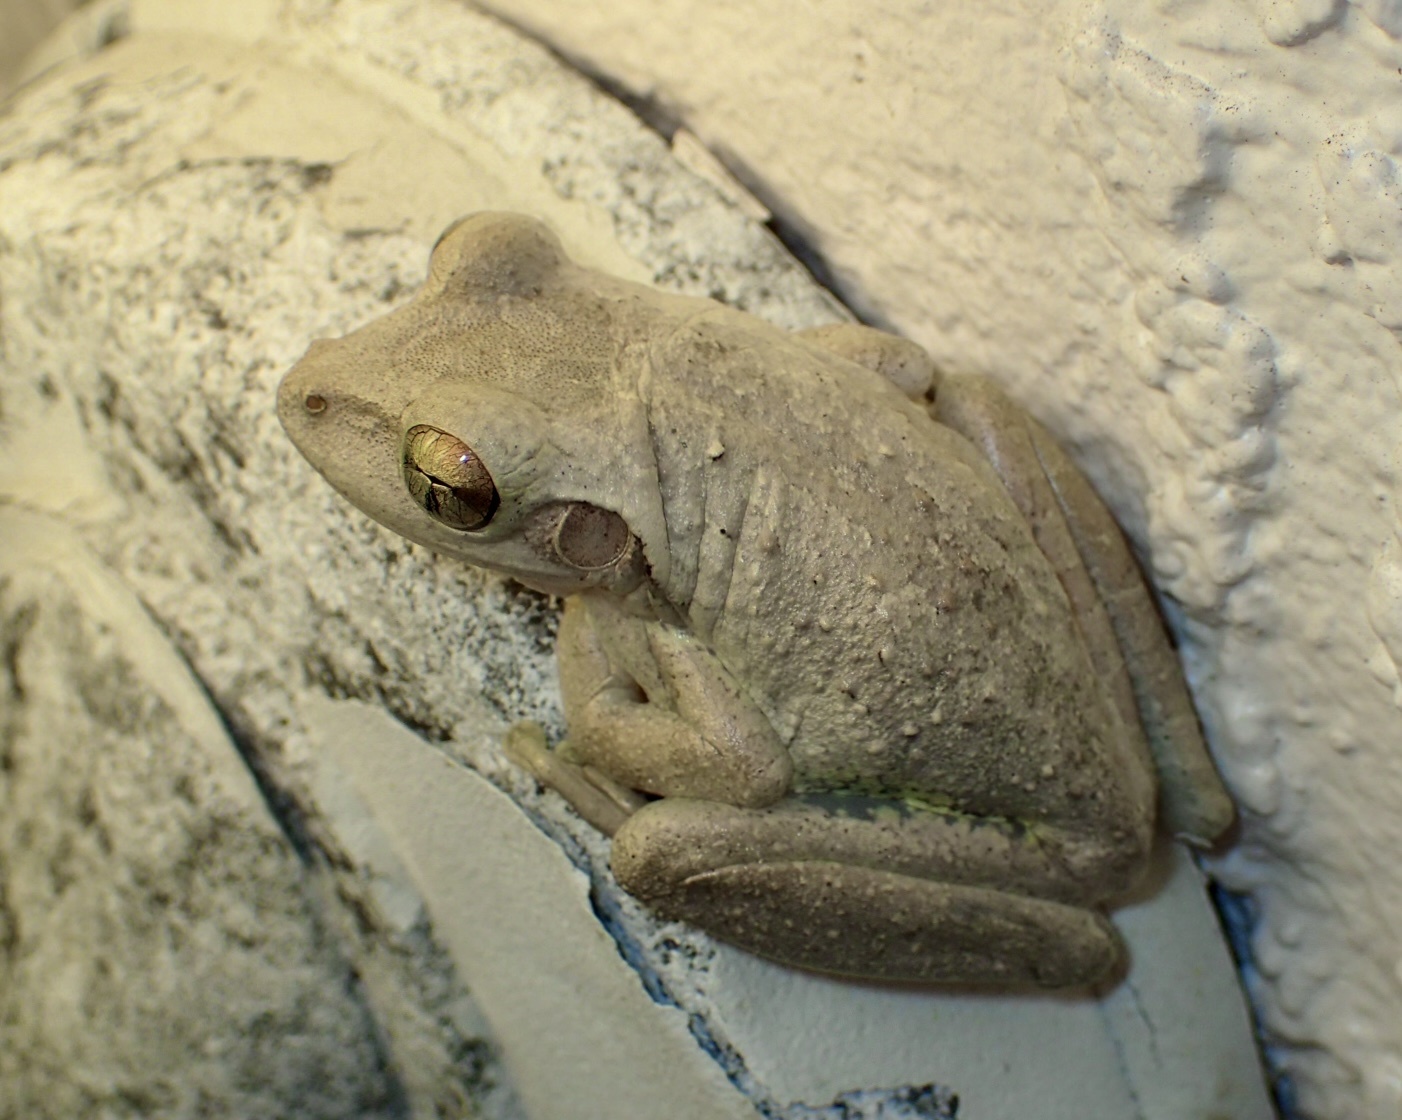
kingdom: Animalia
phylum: Chordata
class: Amphibia
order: Anura
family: Hylidae
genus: Osteopilus
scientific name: Osteopilus septentrionalis
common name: Cuban treefrog
